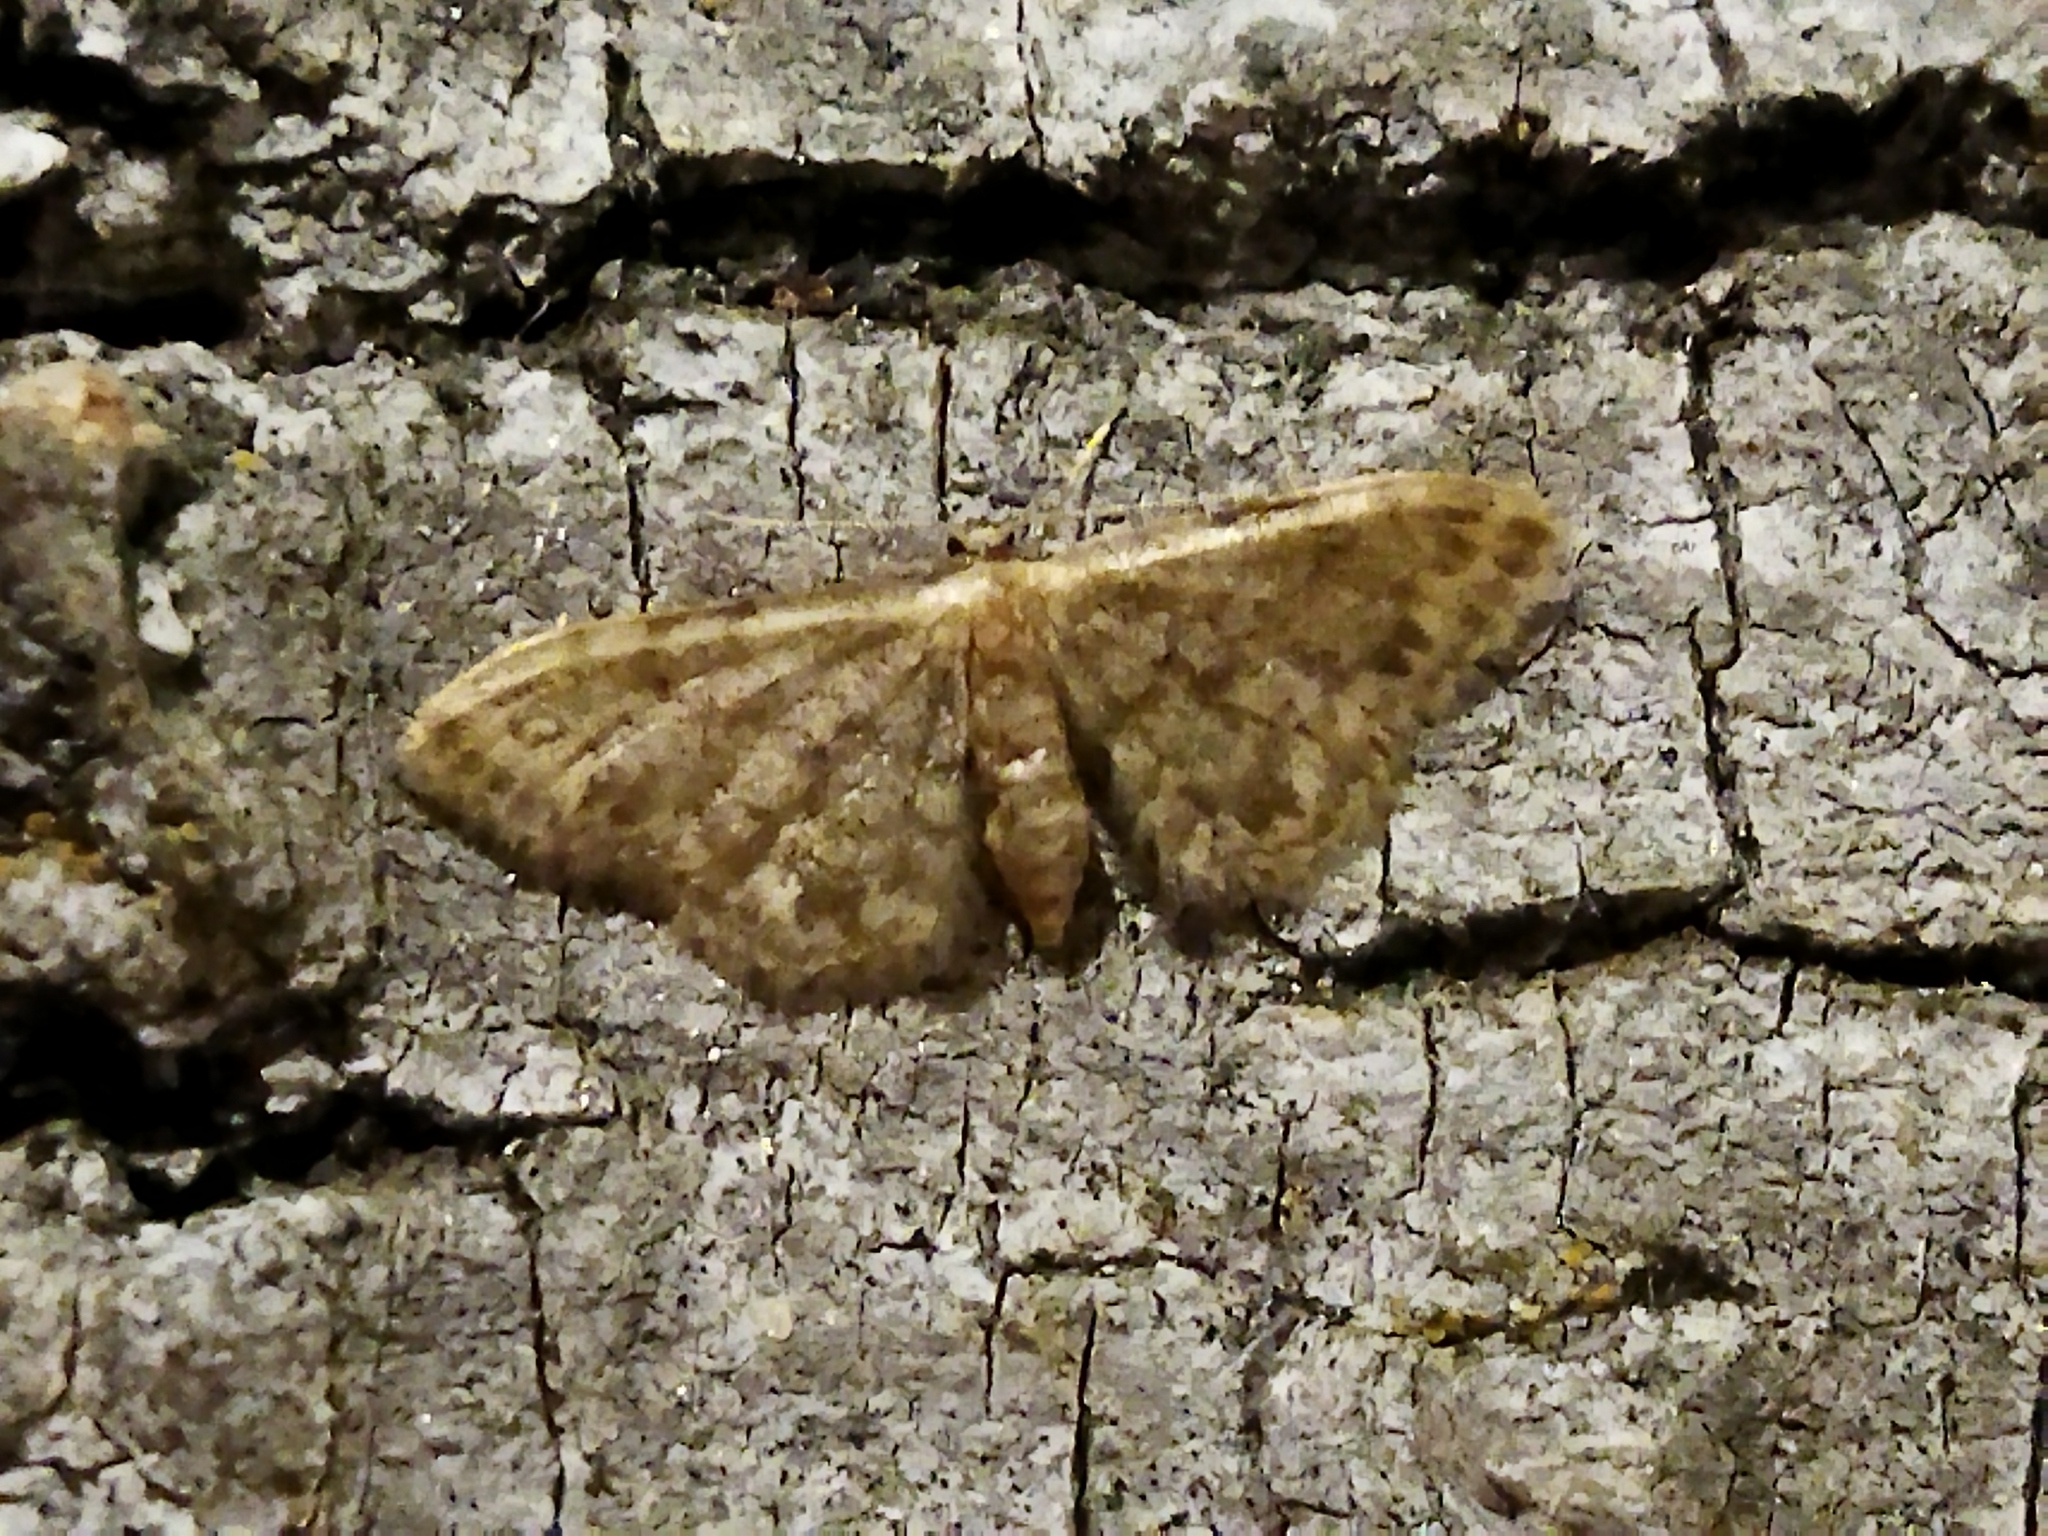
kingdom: Animalia
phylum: Arthropoda
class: Insecta
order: Lepidoptera
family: Geometridae
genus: Idaea
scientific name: Idaea inquinata
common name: Rusty wave
